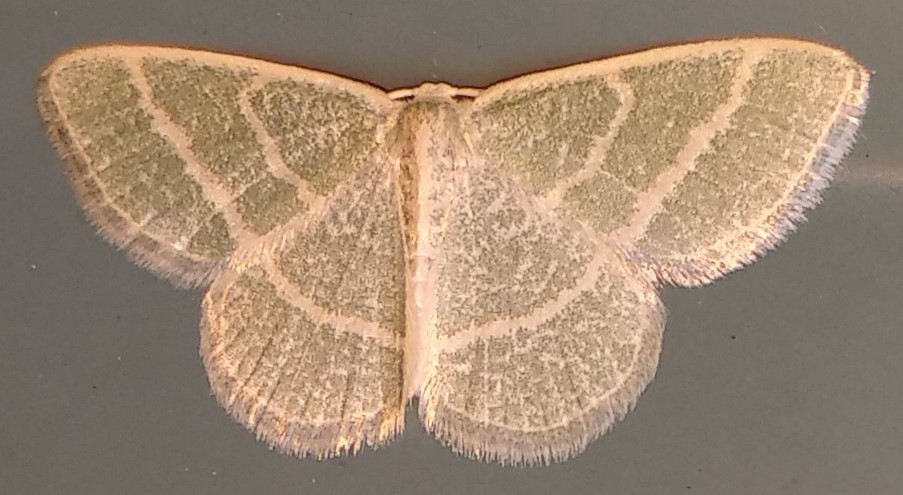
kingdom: Animalia
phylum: Arthropoda
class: Insecta
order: Lepidoptera
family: Geometridae
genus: Chlorochlamys
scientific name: Chlorochlamys chloroleucaria
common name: Blackberry looper
